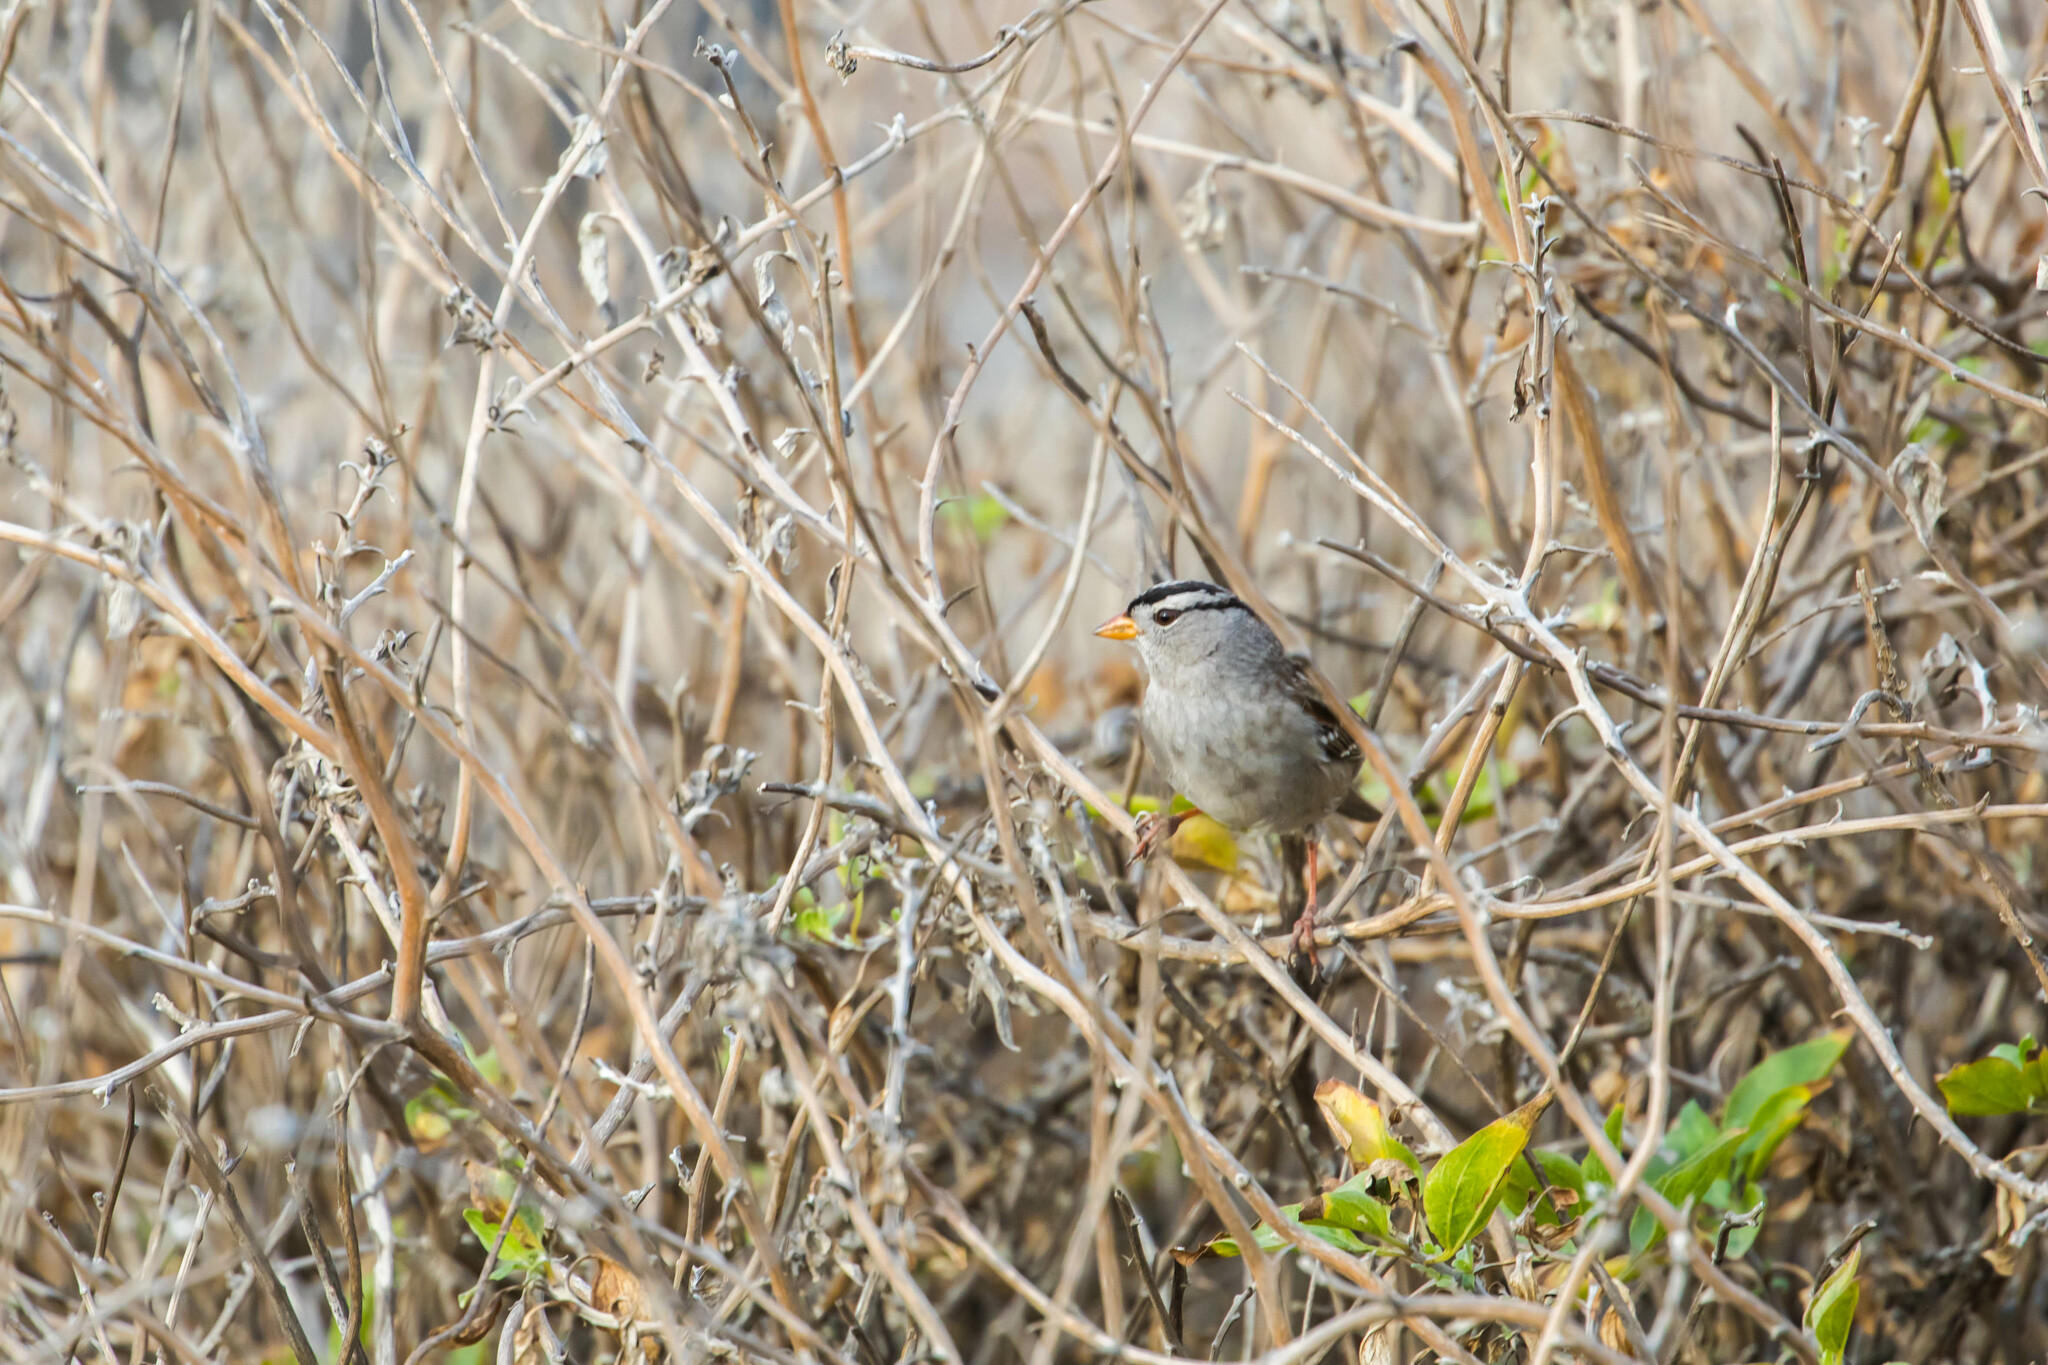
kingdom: Animalia
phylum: Chordata
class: Aves
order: Passeriformes
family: Passerellidae
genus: Zonotrichia
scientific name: Zonotrichia leucophrys
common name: White-crowned sparrow
